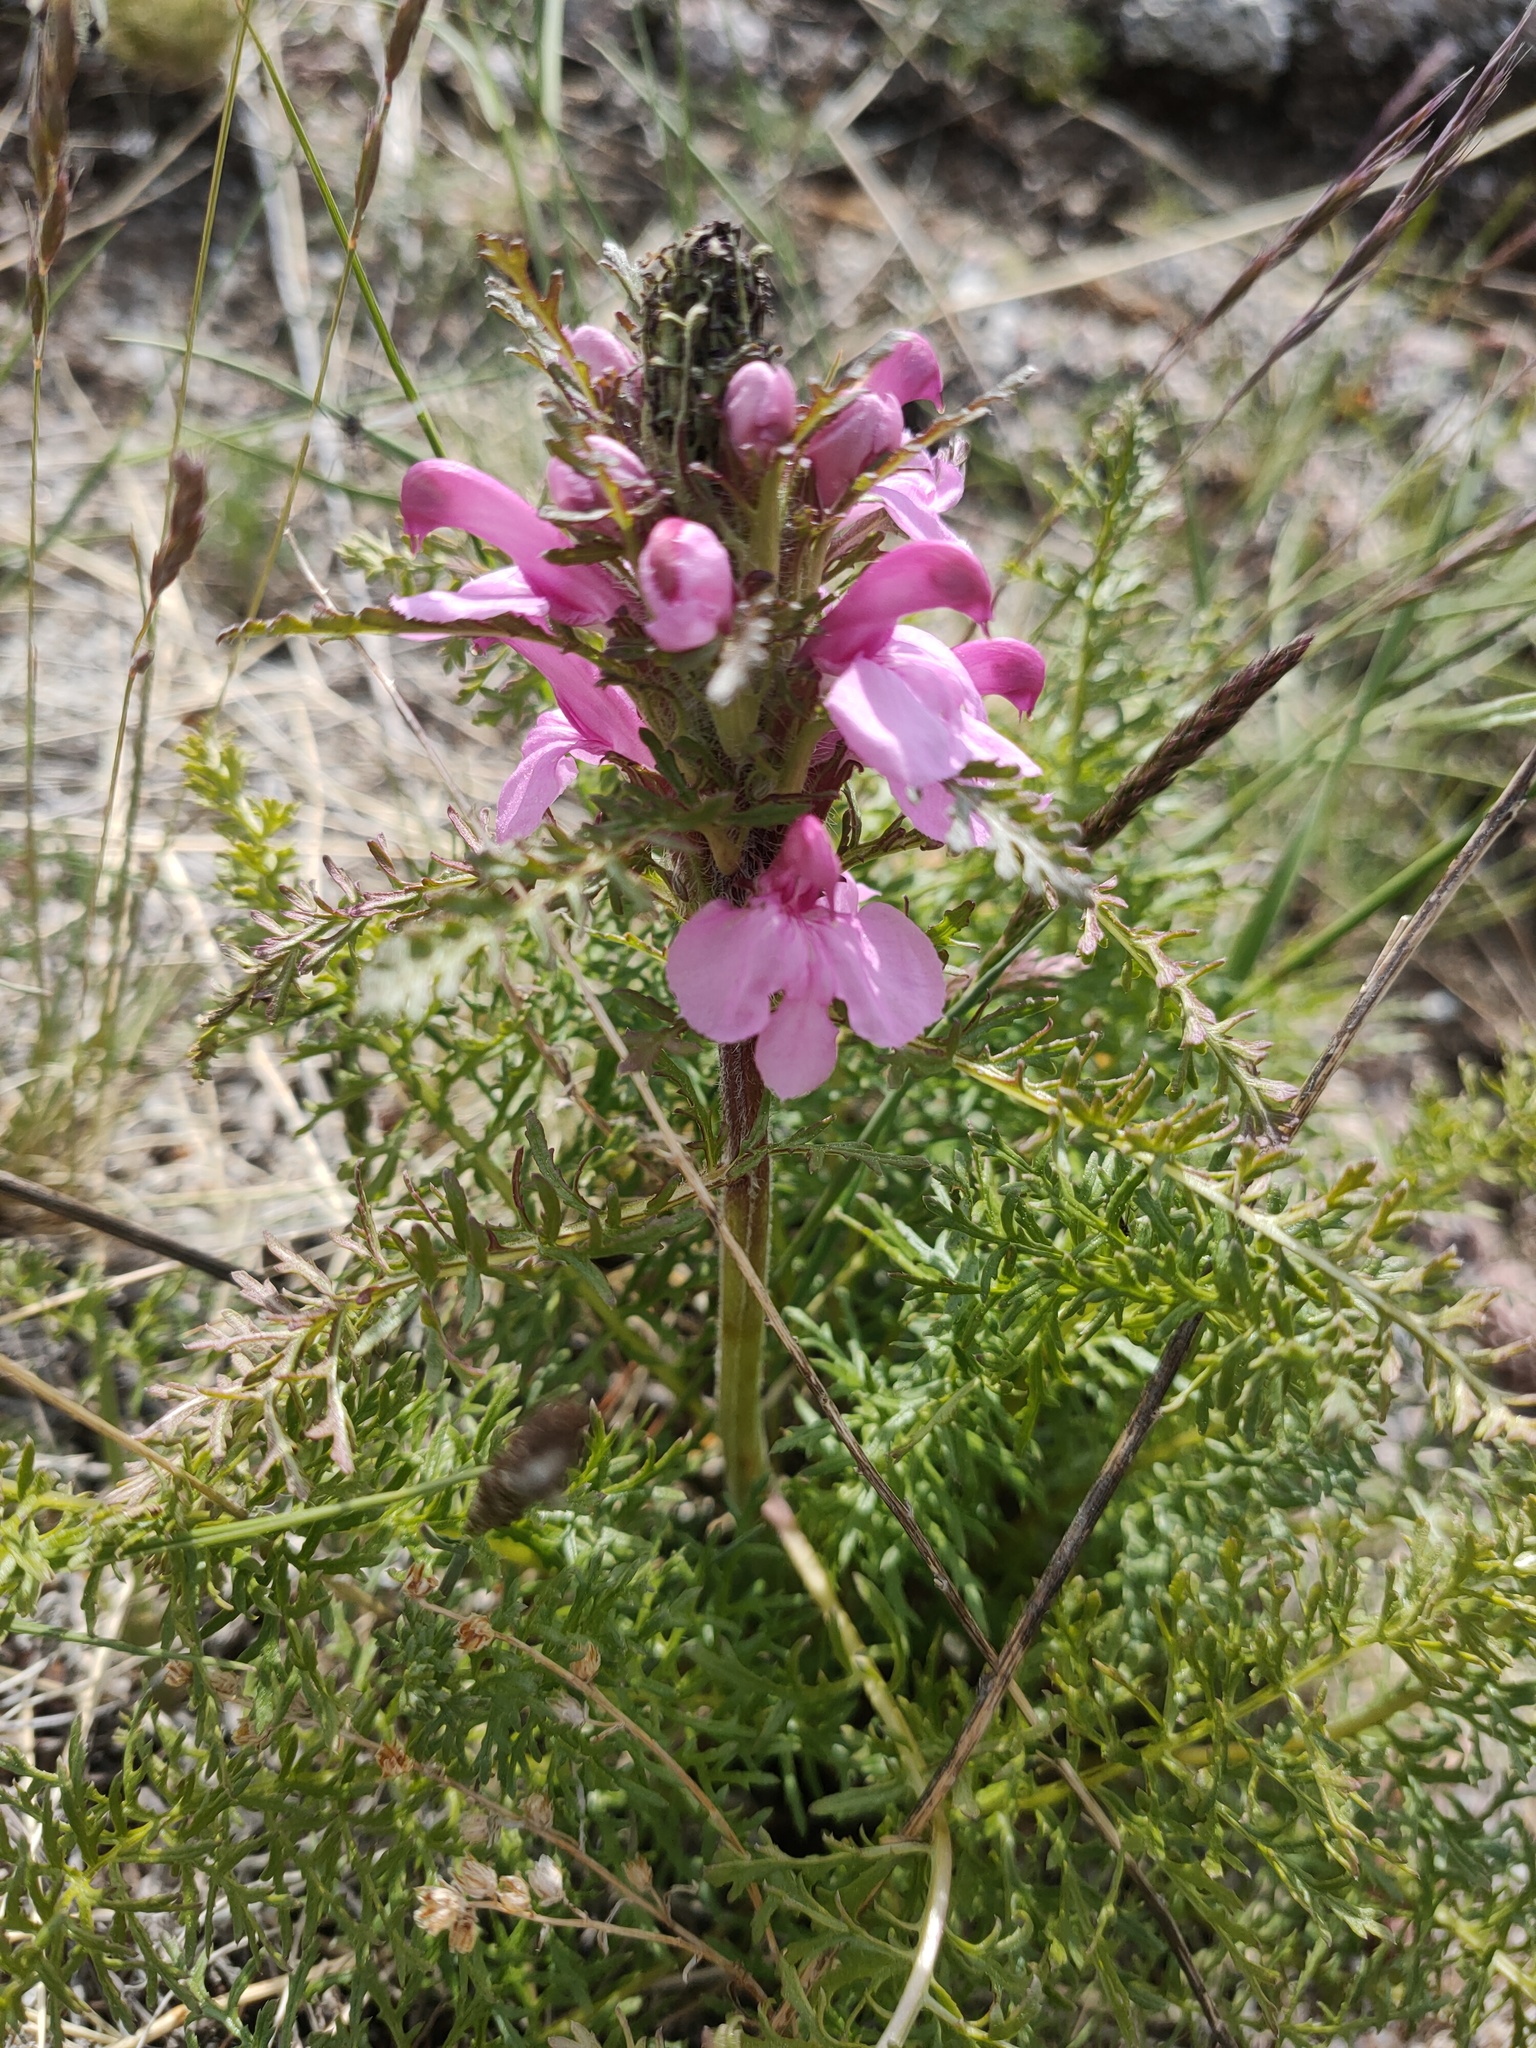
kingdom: Plantae
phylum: Tracheophyta
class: Magnoliopsida
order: Lamiales
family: Orobanchaceae
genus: Pedicularis
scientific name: Pedicularis rubens
